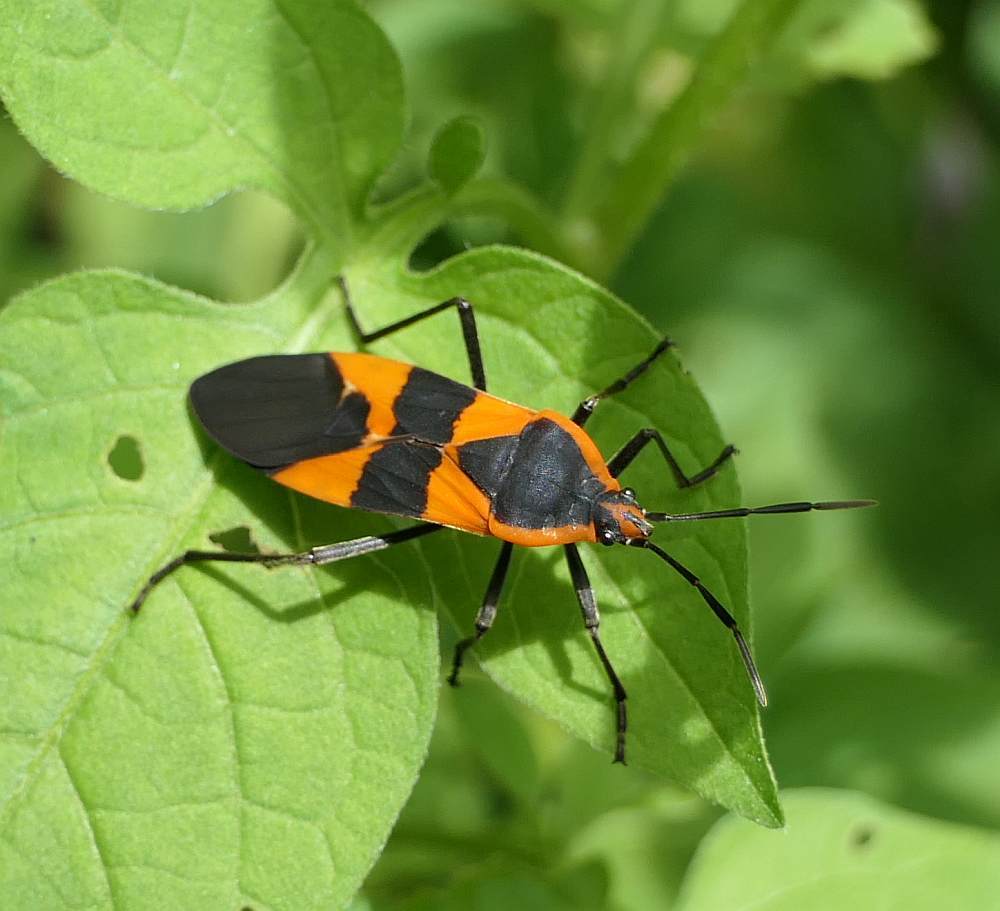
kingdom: Animalia
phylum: Arthropoda
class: Insecta
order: Hemiptera
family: Lygaeidae
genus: Oncopeltus
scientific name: Oncopeltus fasciatus
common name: Large milkweed bug
